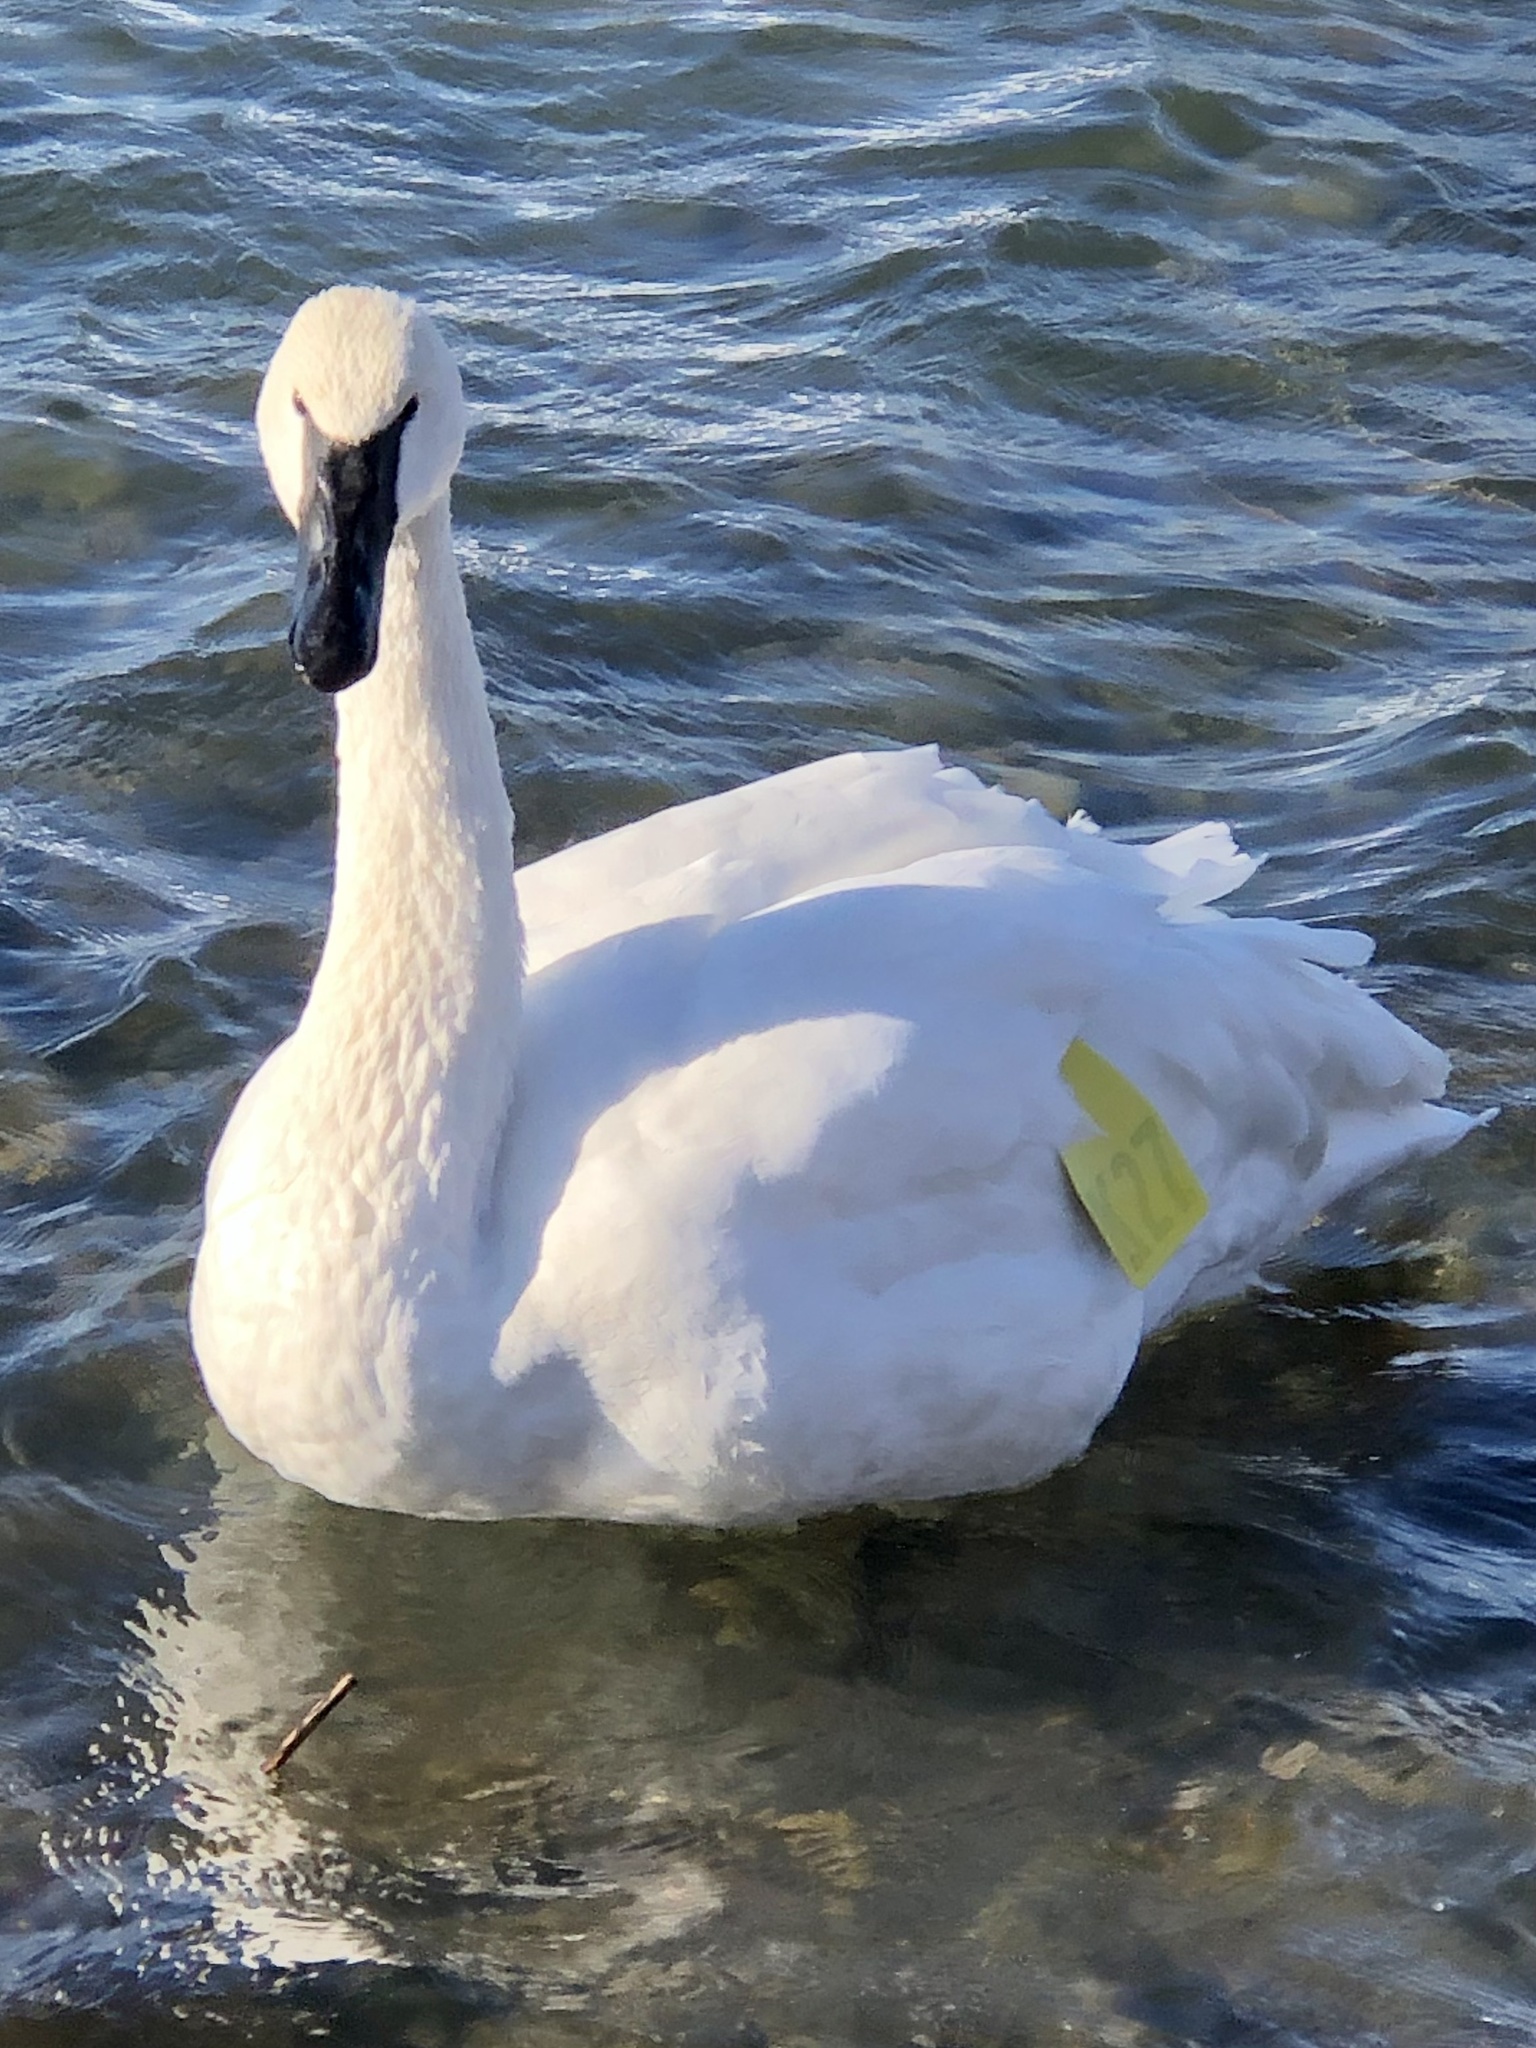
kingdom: Animalia
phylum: Chordata
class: Aves
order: Anseriformes
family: Anatidae
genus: Cygnus
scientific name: Cygnus buccinator
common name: Trumpeter swan
